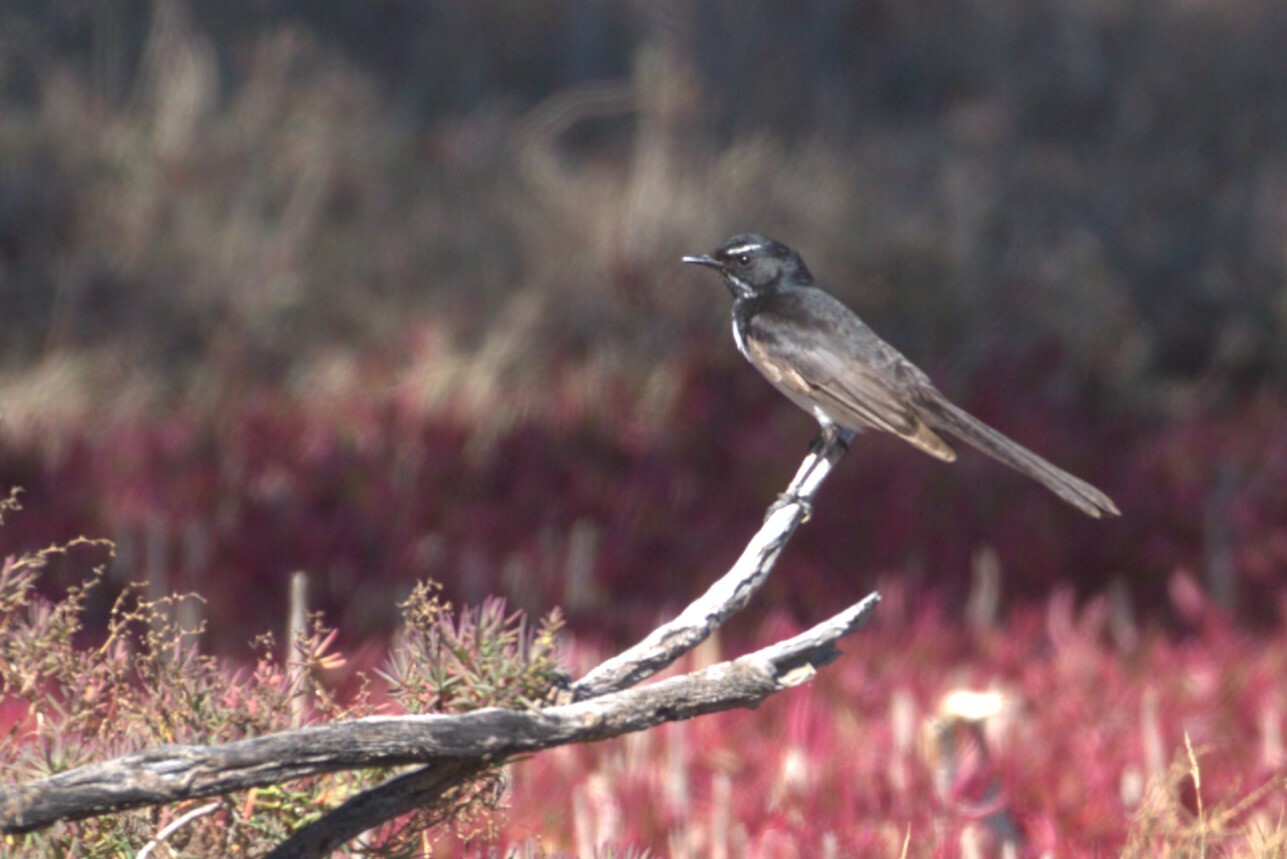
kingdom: Animalia
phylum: Chordata
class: Aves
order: Passeriformes
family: Rhipiduridae
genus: Rhipidura
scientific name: Rhipidura leucophrys
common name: Willie wagtail
